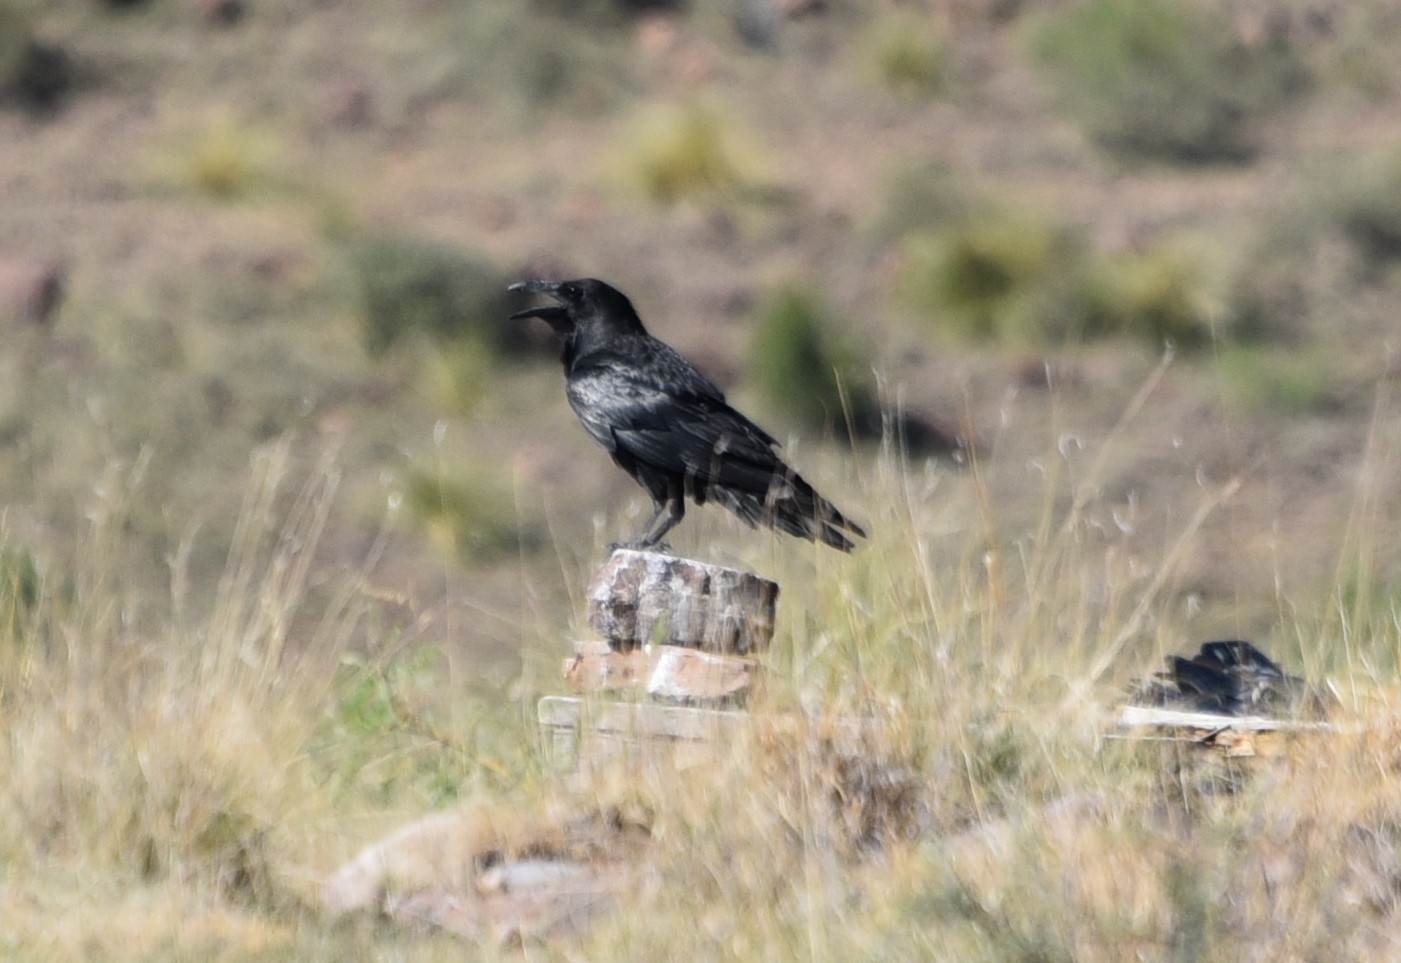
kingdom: Animalia
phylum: Chordata
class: Aves
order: Passeriformes
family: Corvidae
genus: Corvus
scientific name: Corvus corax
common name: Common raven
